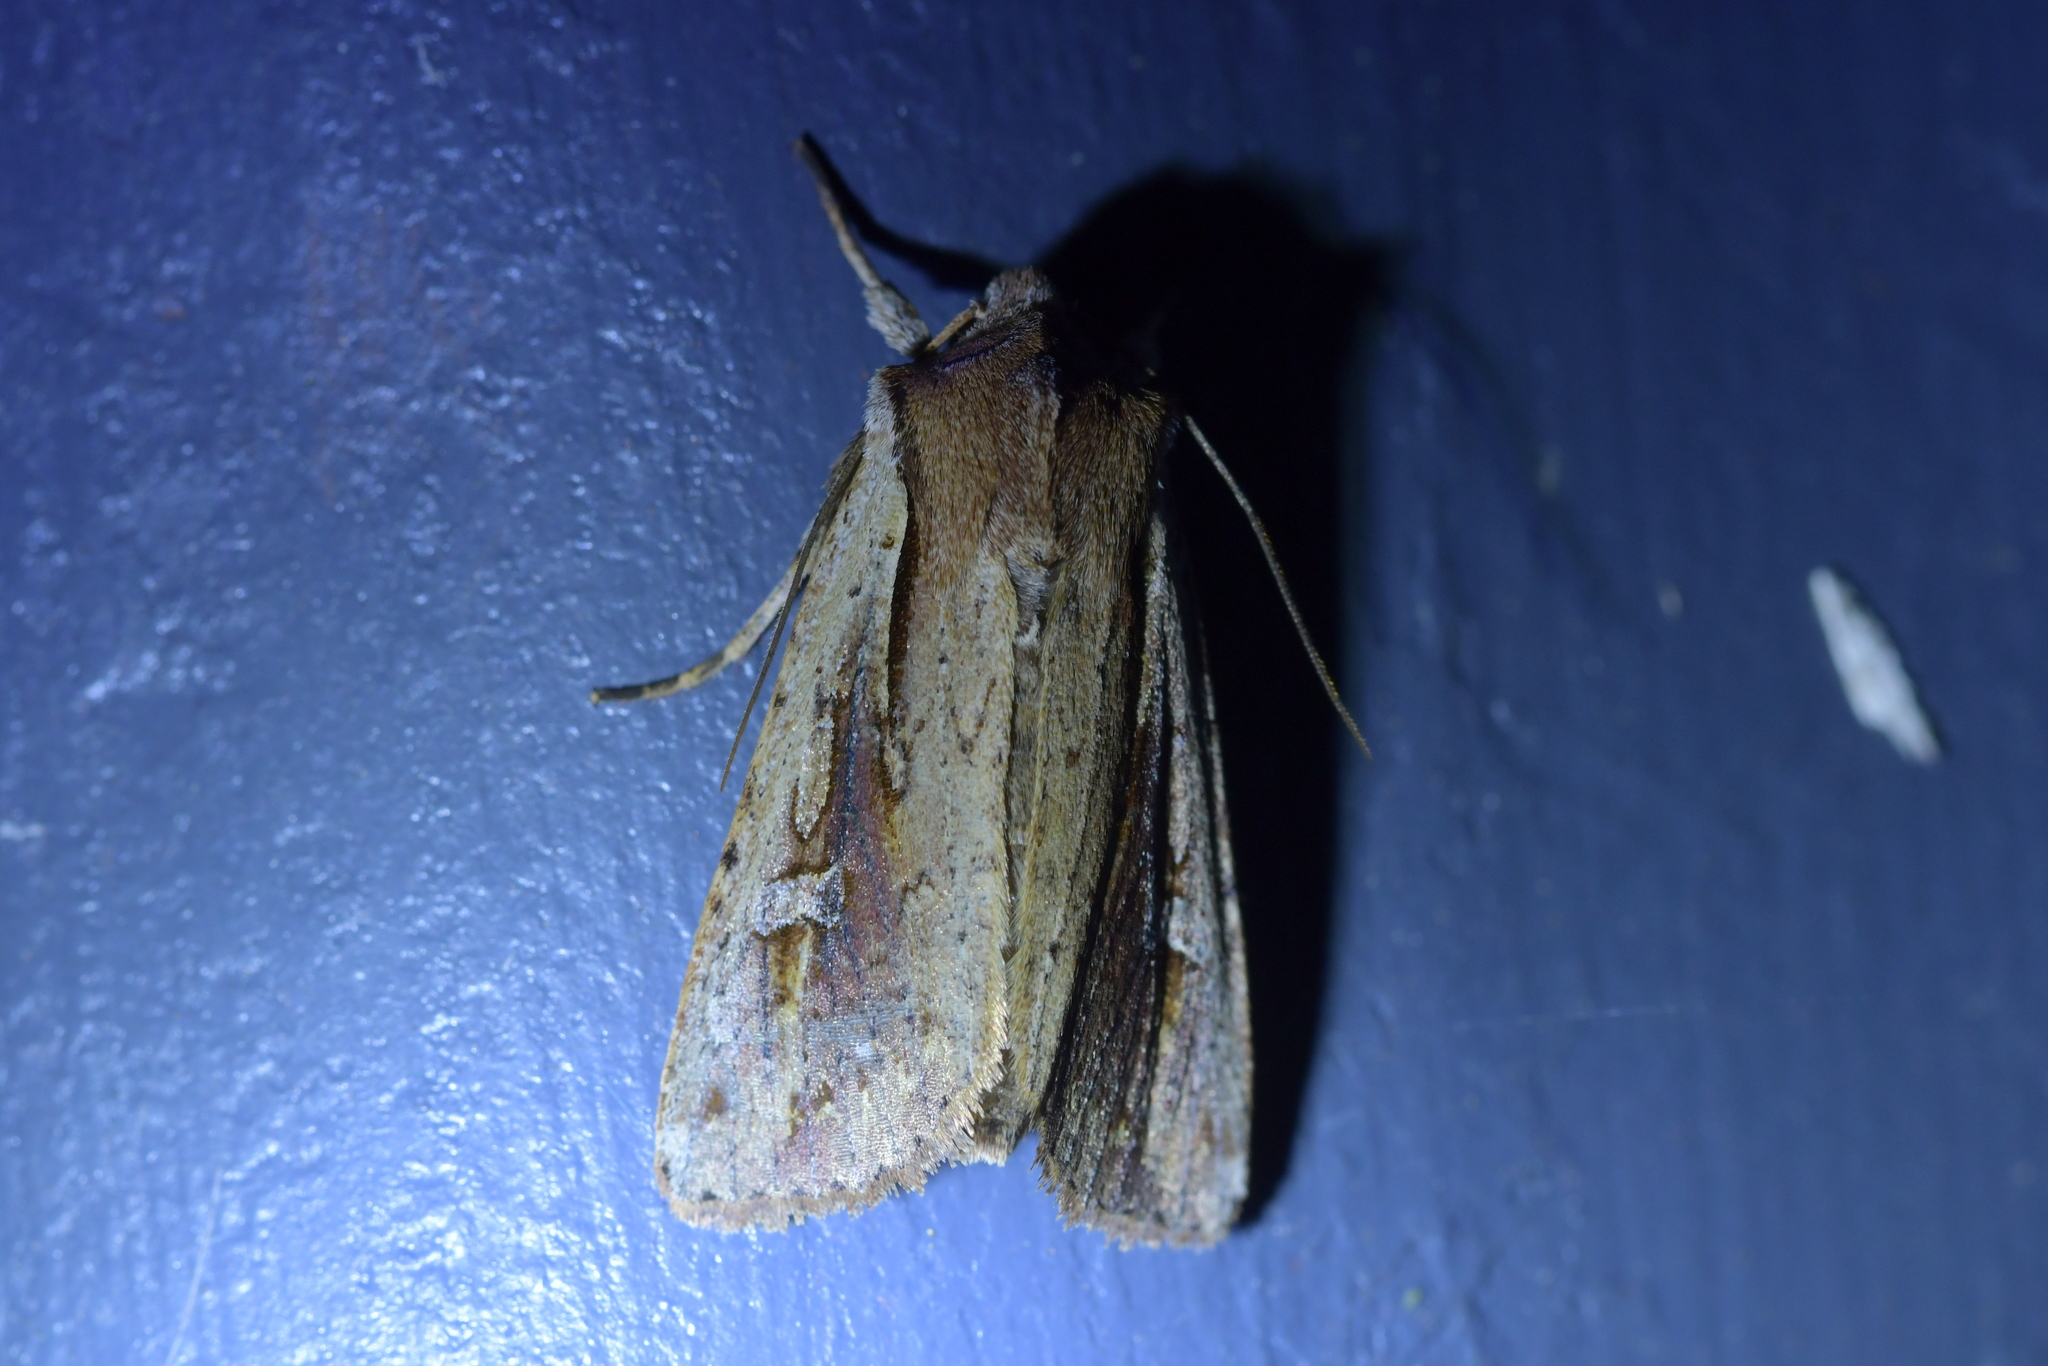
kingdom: Animalia
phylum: Arthropoda
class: Insecta
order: Lepidoptera
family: Noctuidae
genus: Ichneutica
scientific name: Ichneutica atristriga
